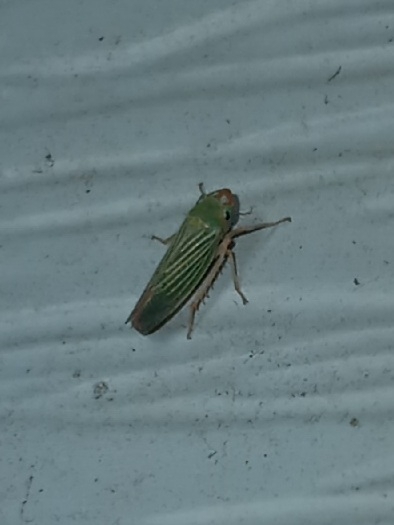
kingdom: Animalia
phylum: Arthropoda
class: Insecta
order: Hemiptera
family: Cicadellidae
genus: Xyphon
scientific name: Xyphon flaviceps
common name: Yellowheaded leafhopper
